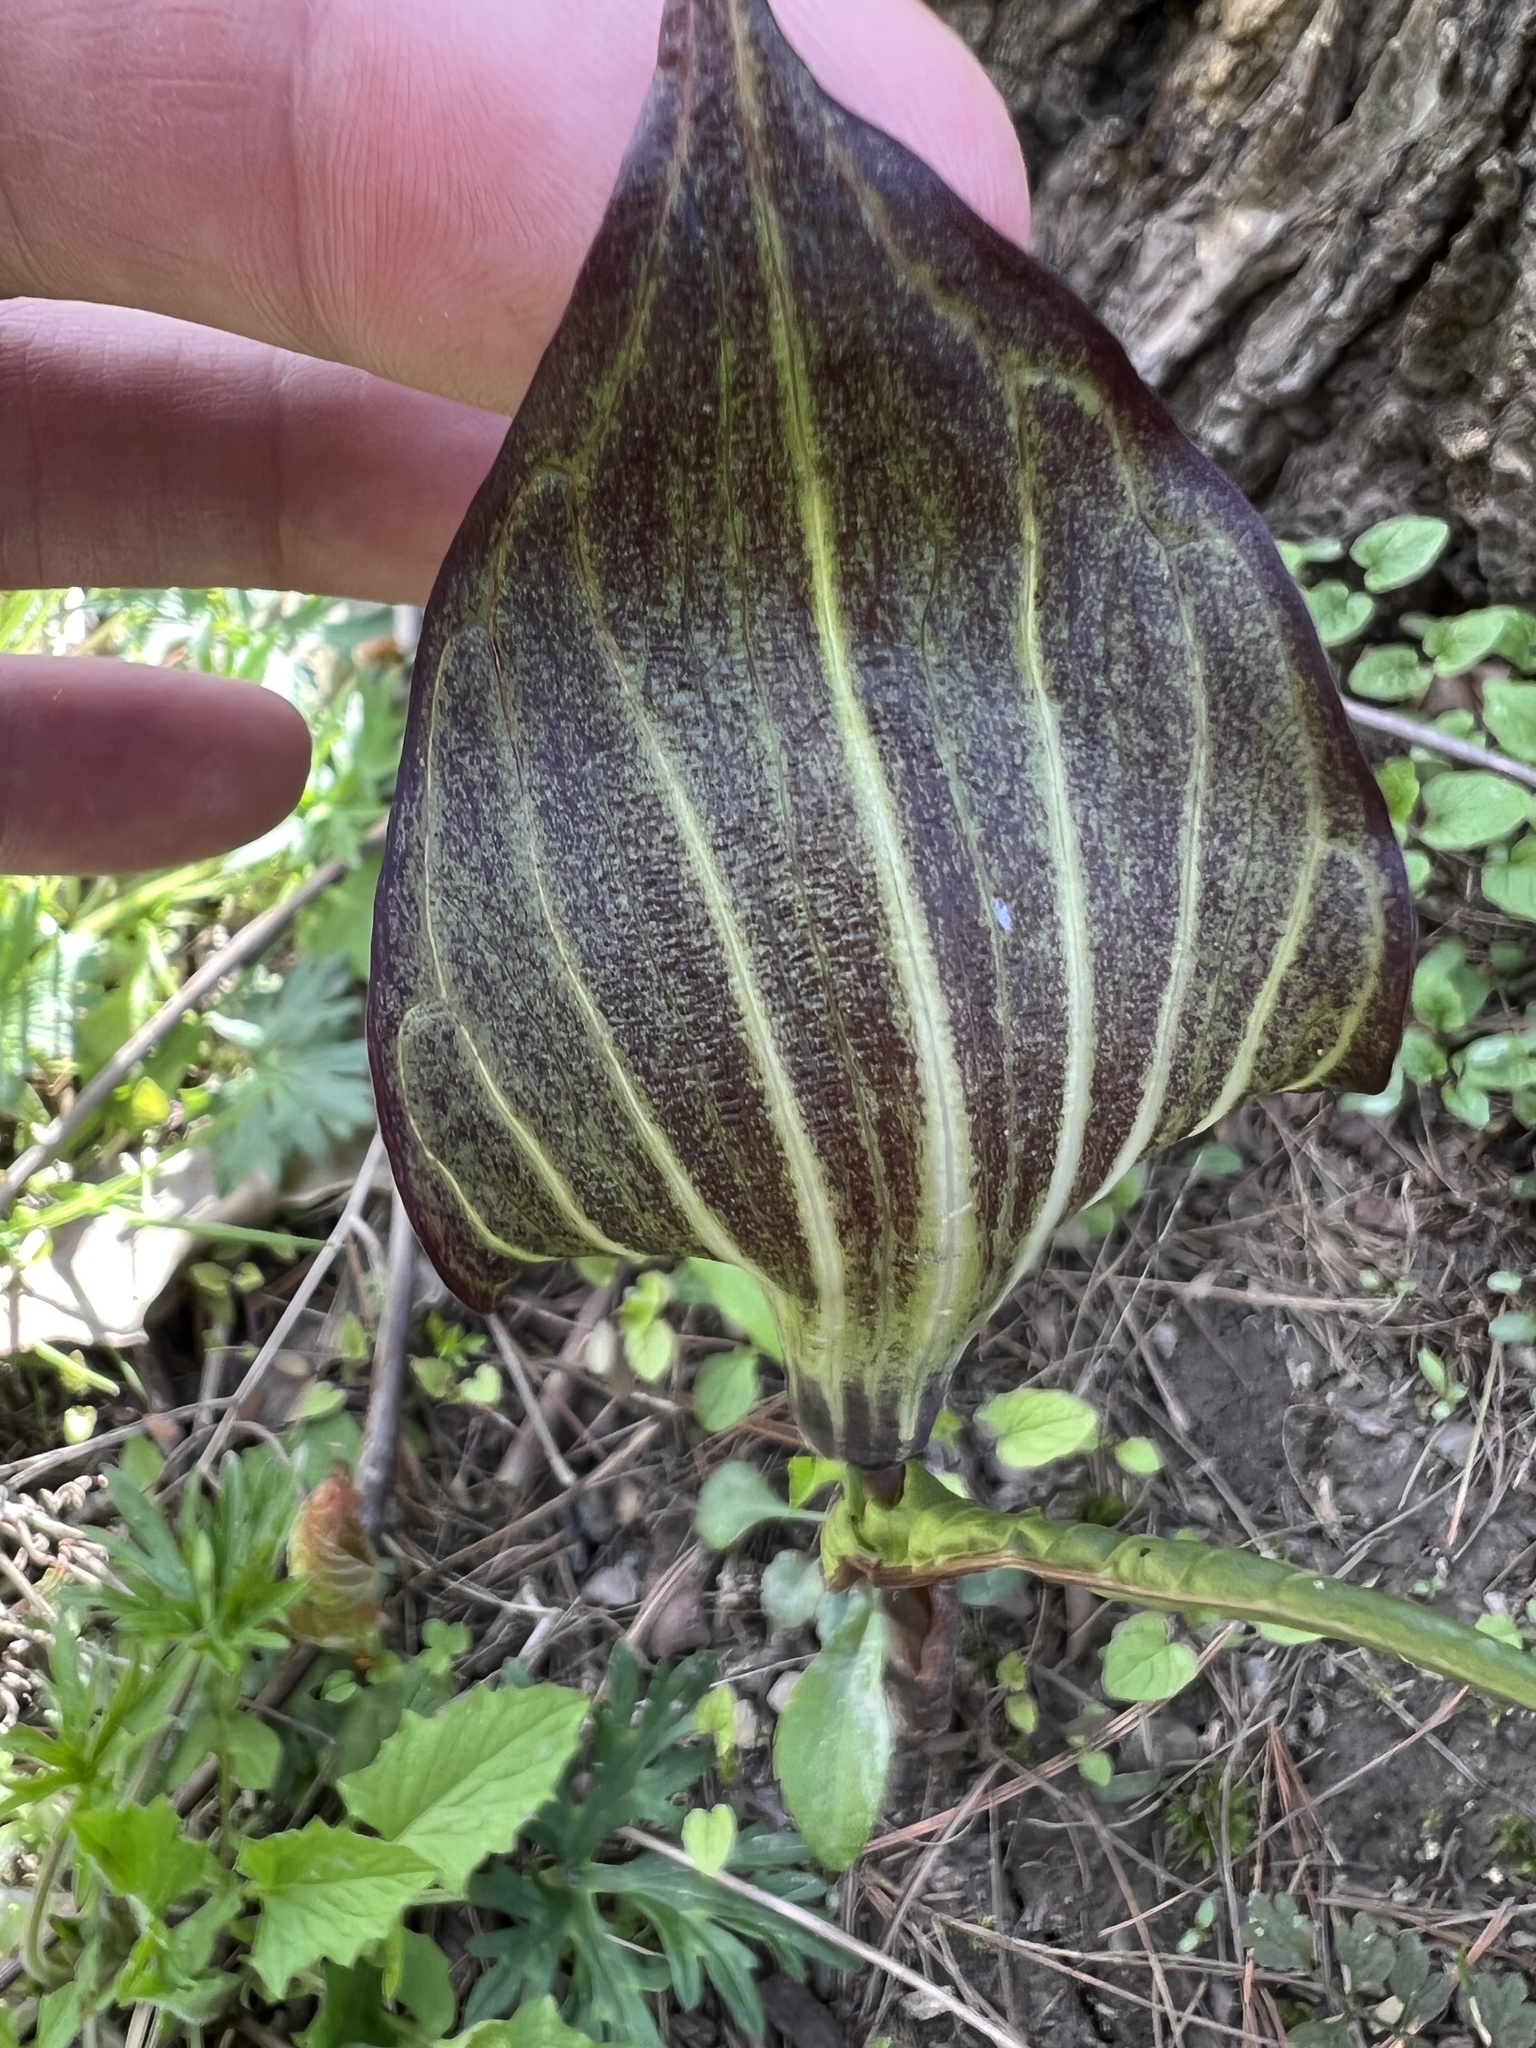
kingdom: Plantae
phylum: Tracheophyta
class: Liliopsida
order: Alismatales
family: Araceae
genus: Arisaema
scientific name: Arisaema triphyllum
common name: Jack-in-the-pulpit
